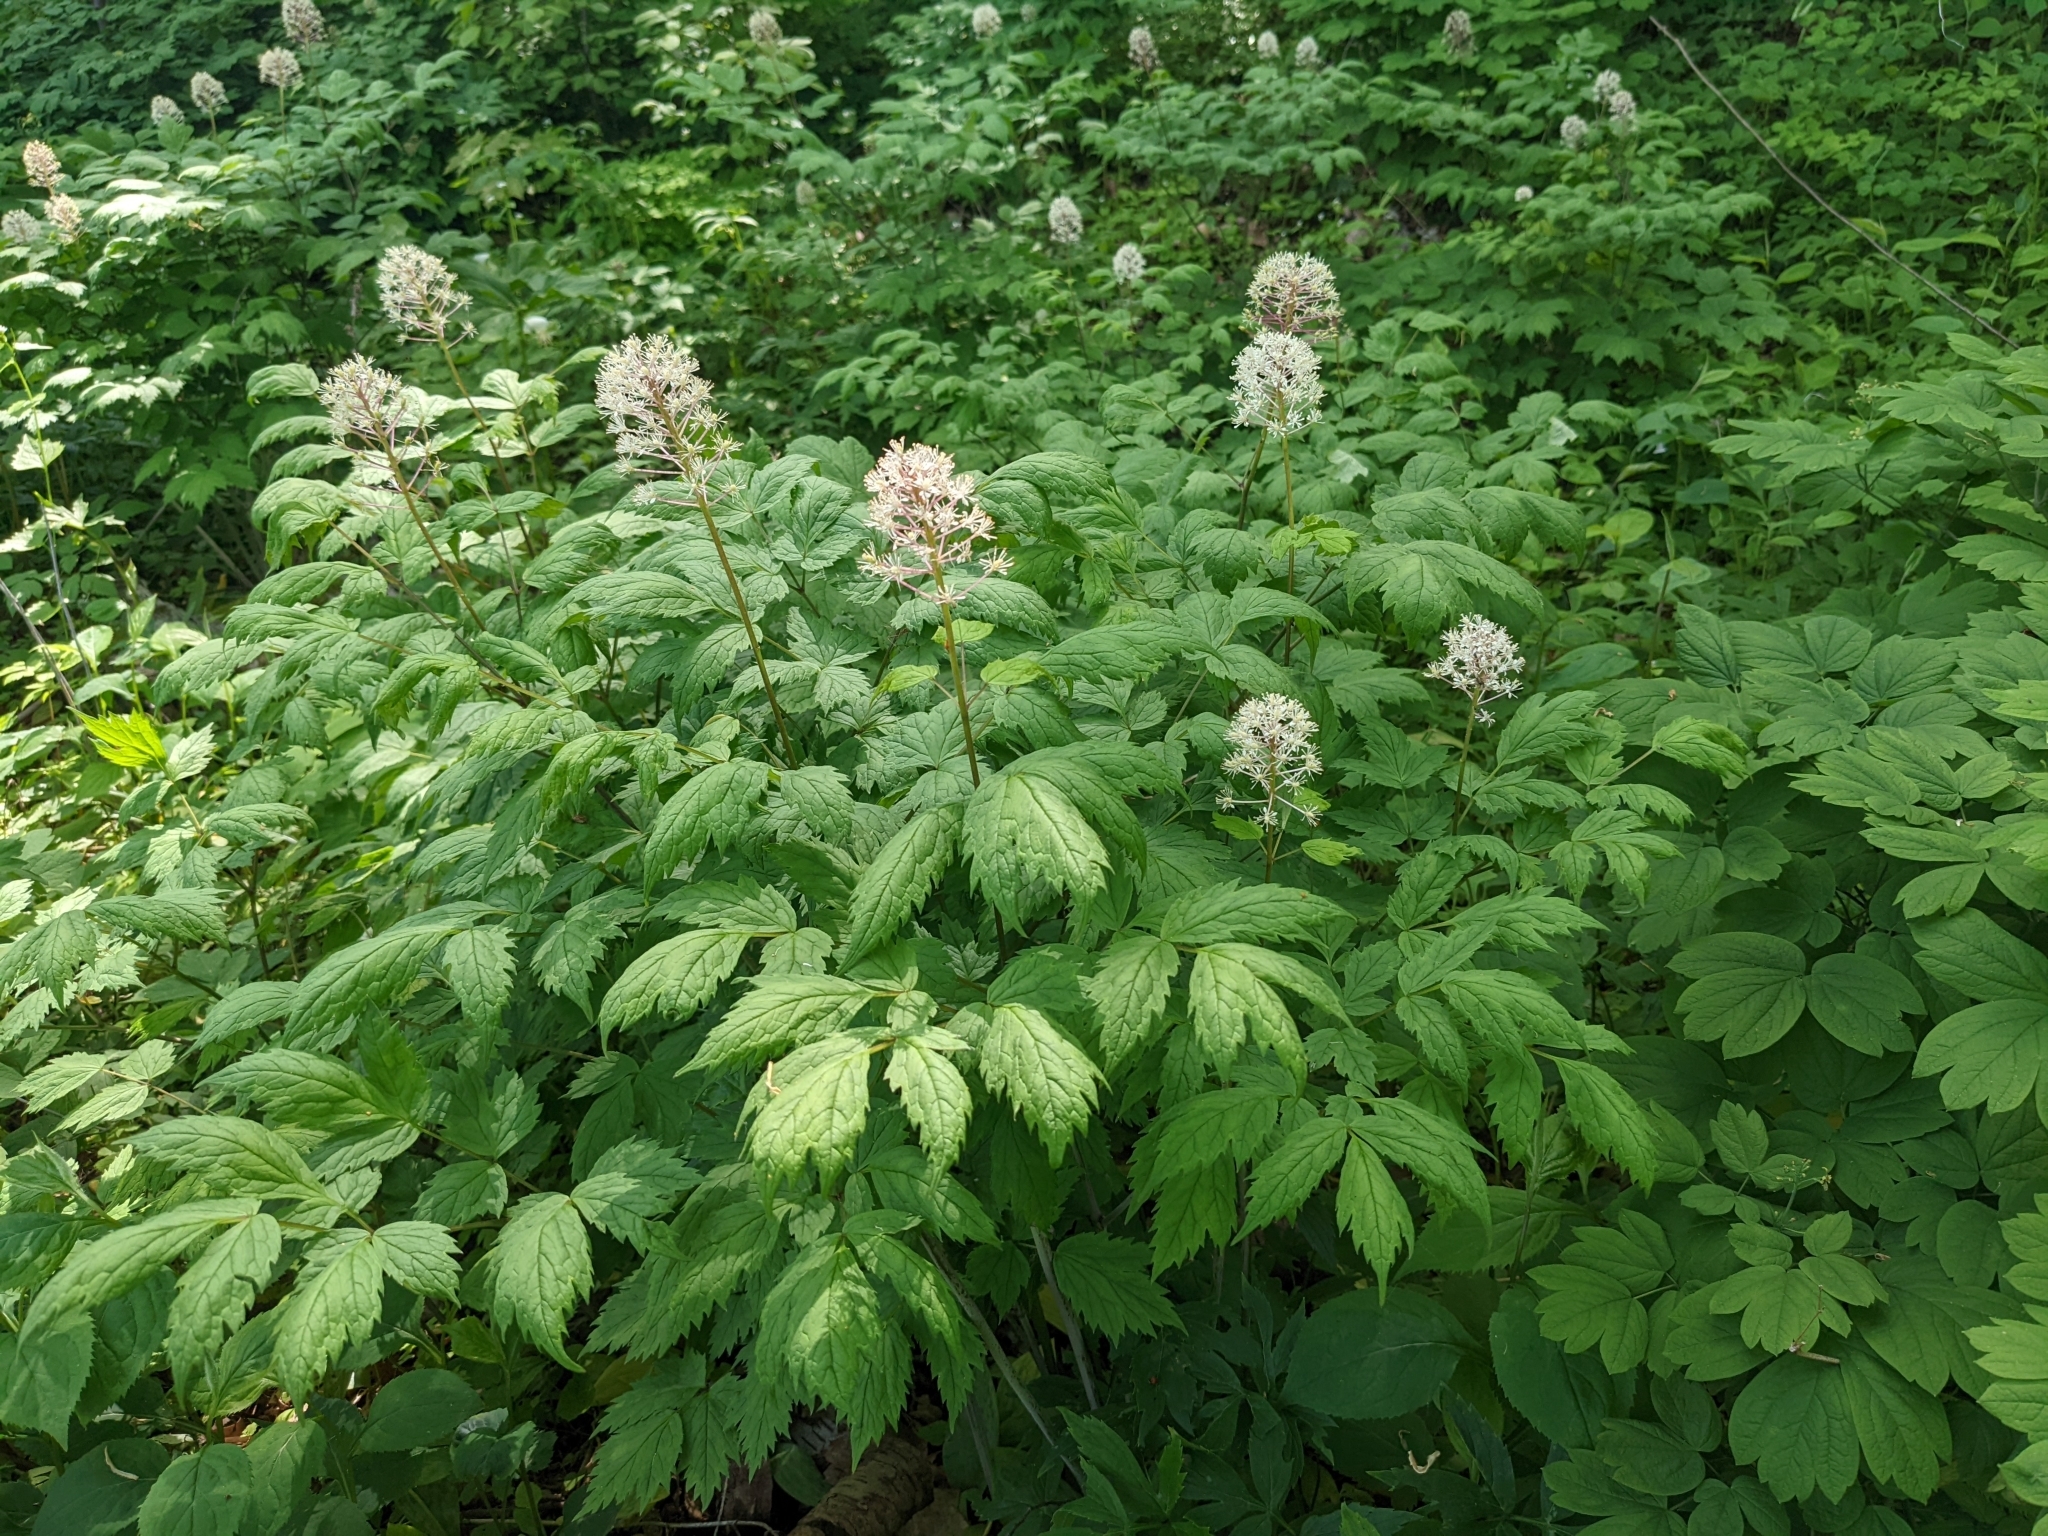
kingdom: Plantae
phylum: Tracheophyta
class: Magnoliopsida
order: Ranunculales
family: Ranunculaceae
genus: Actaea
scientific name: Actaea rubra
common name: Red baneberry
